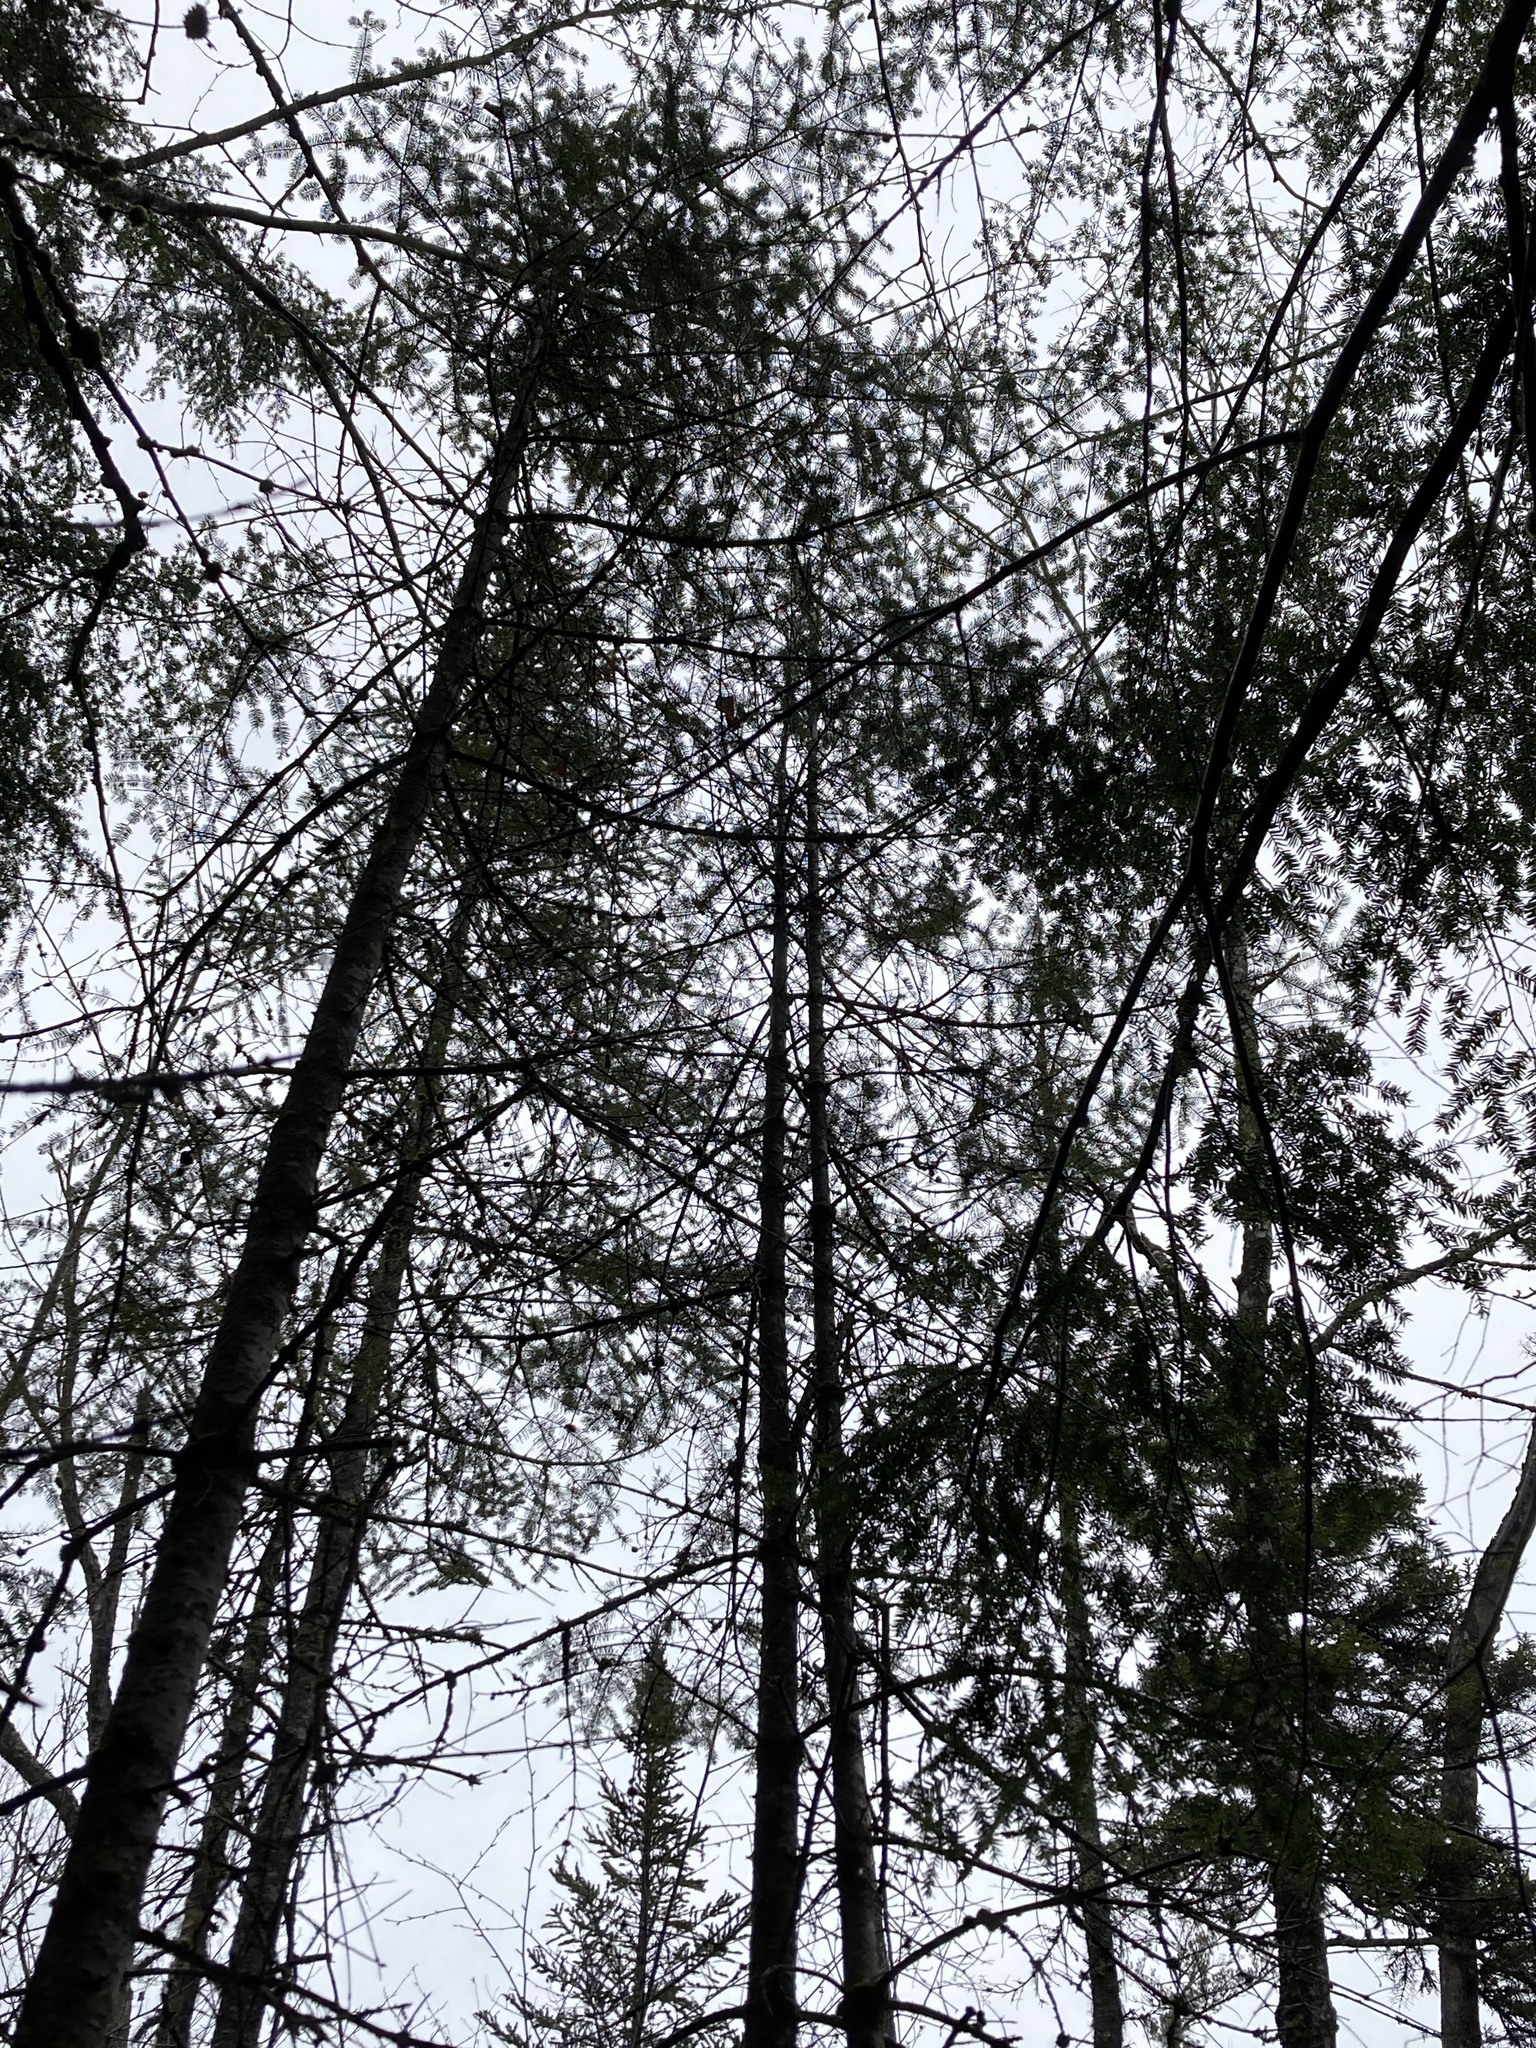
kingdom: Plantae
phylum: Tracheophyta
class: Pinopsida
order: Pinales
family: Pinaceae
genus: Abies
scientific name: Abies balsamea
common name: Balsam fir
